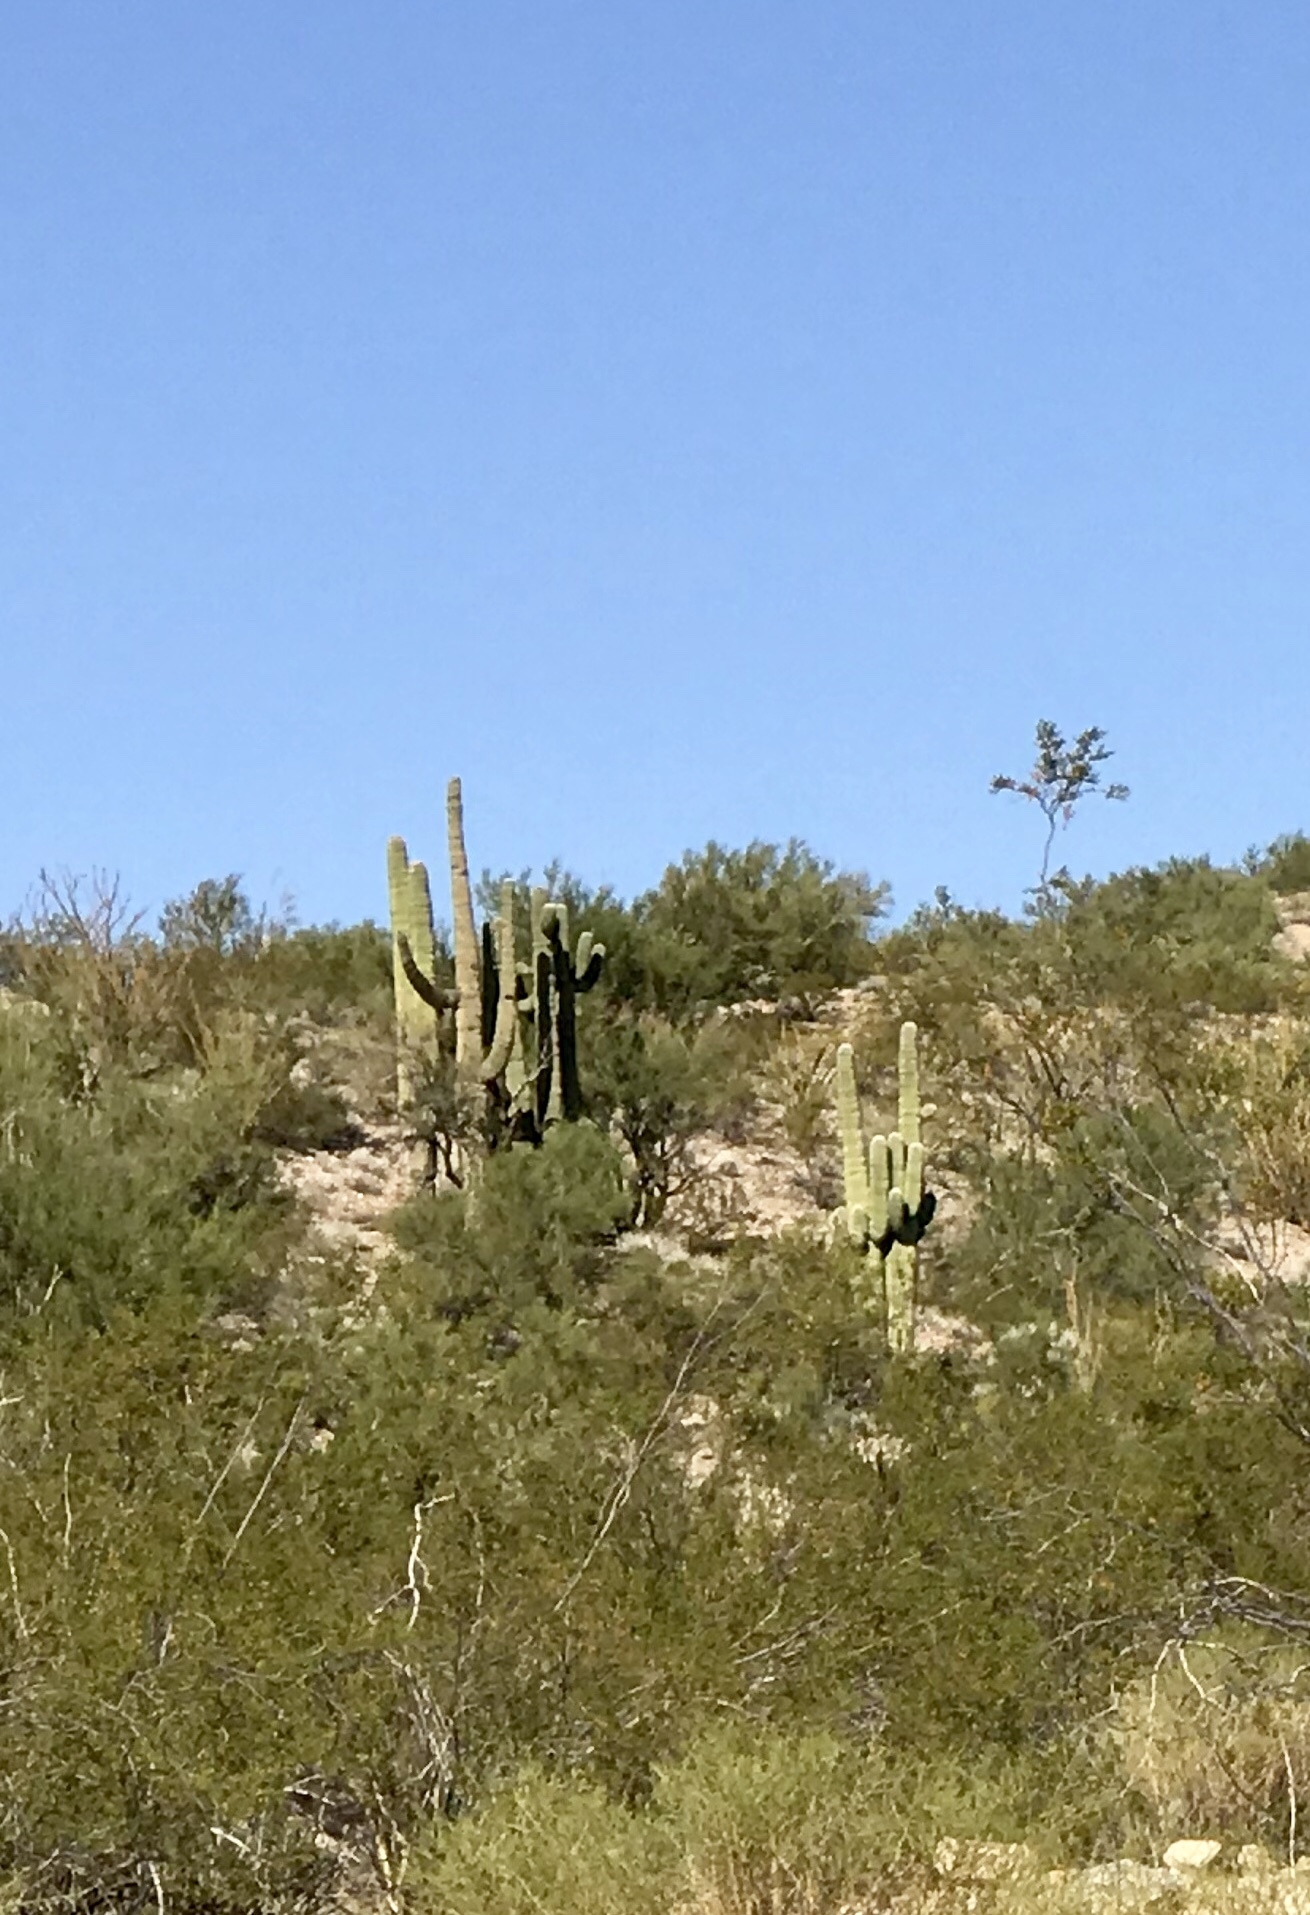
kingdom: Plantae
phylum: Tracheophyta
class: Magnoliopsida
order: Caryophyllales
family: Cactaceae
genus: Carnegiea
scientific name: Carnegiea gigantea
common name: Saguaro
